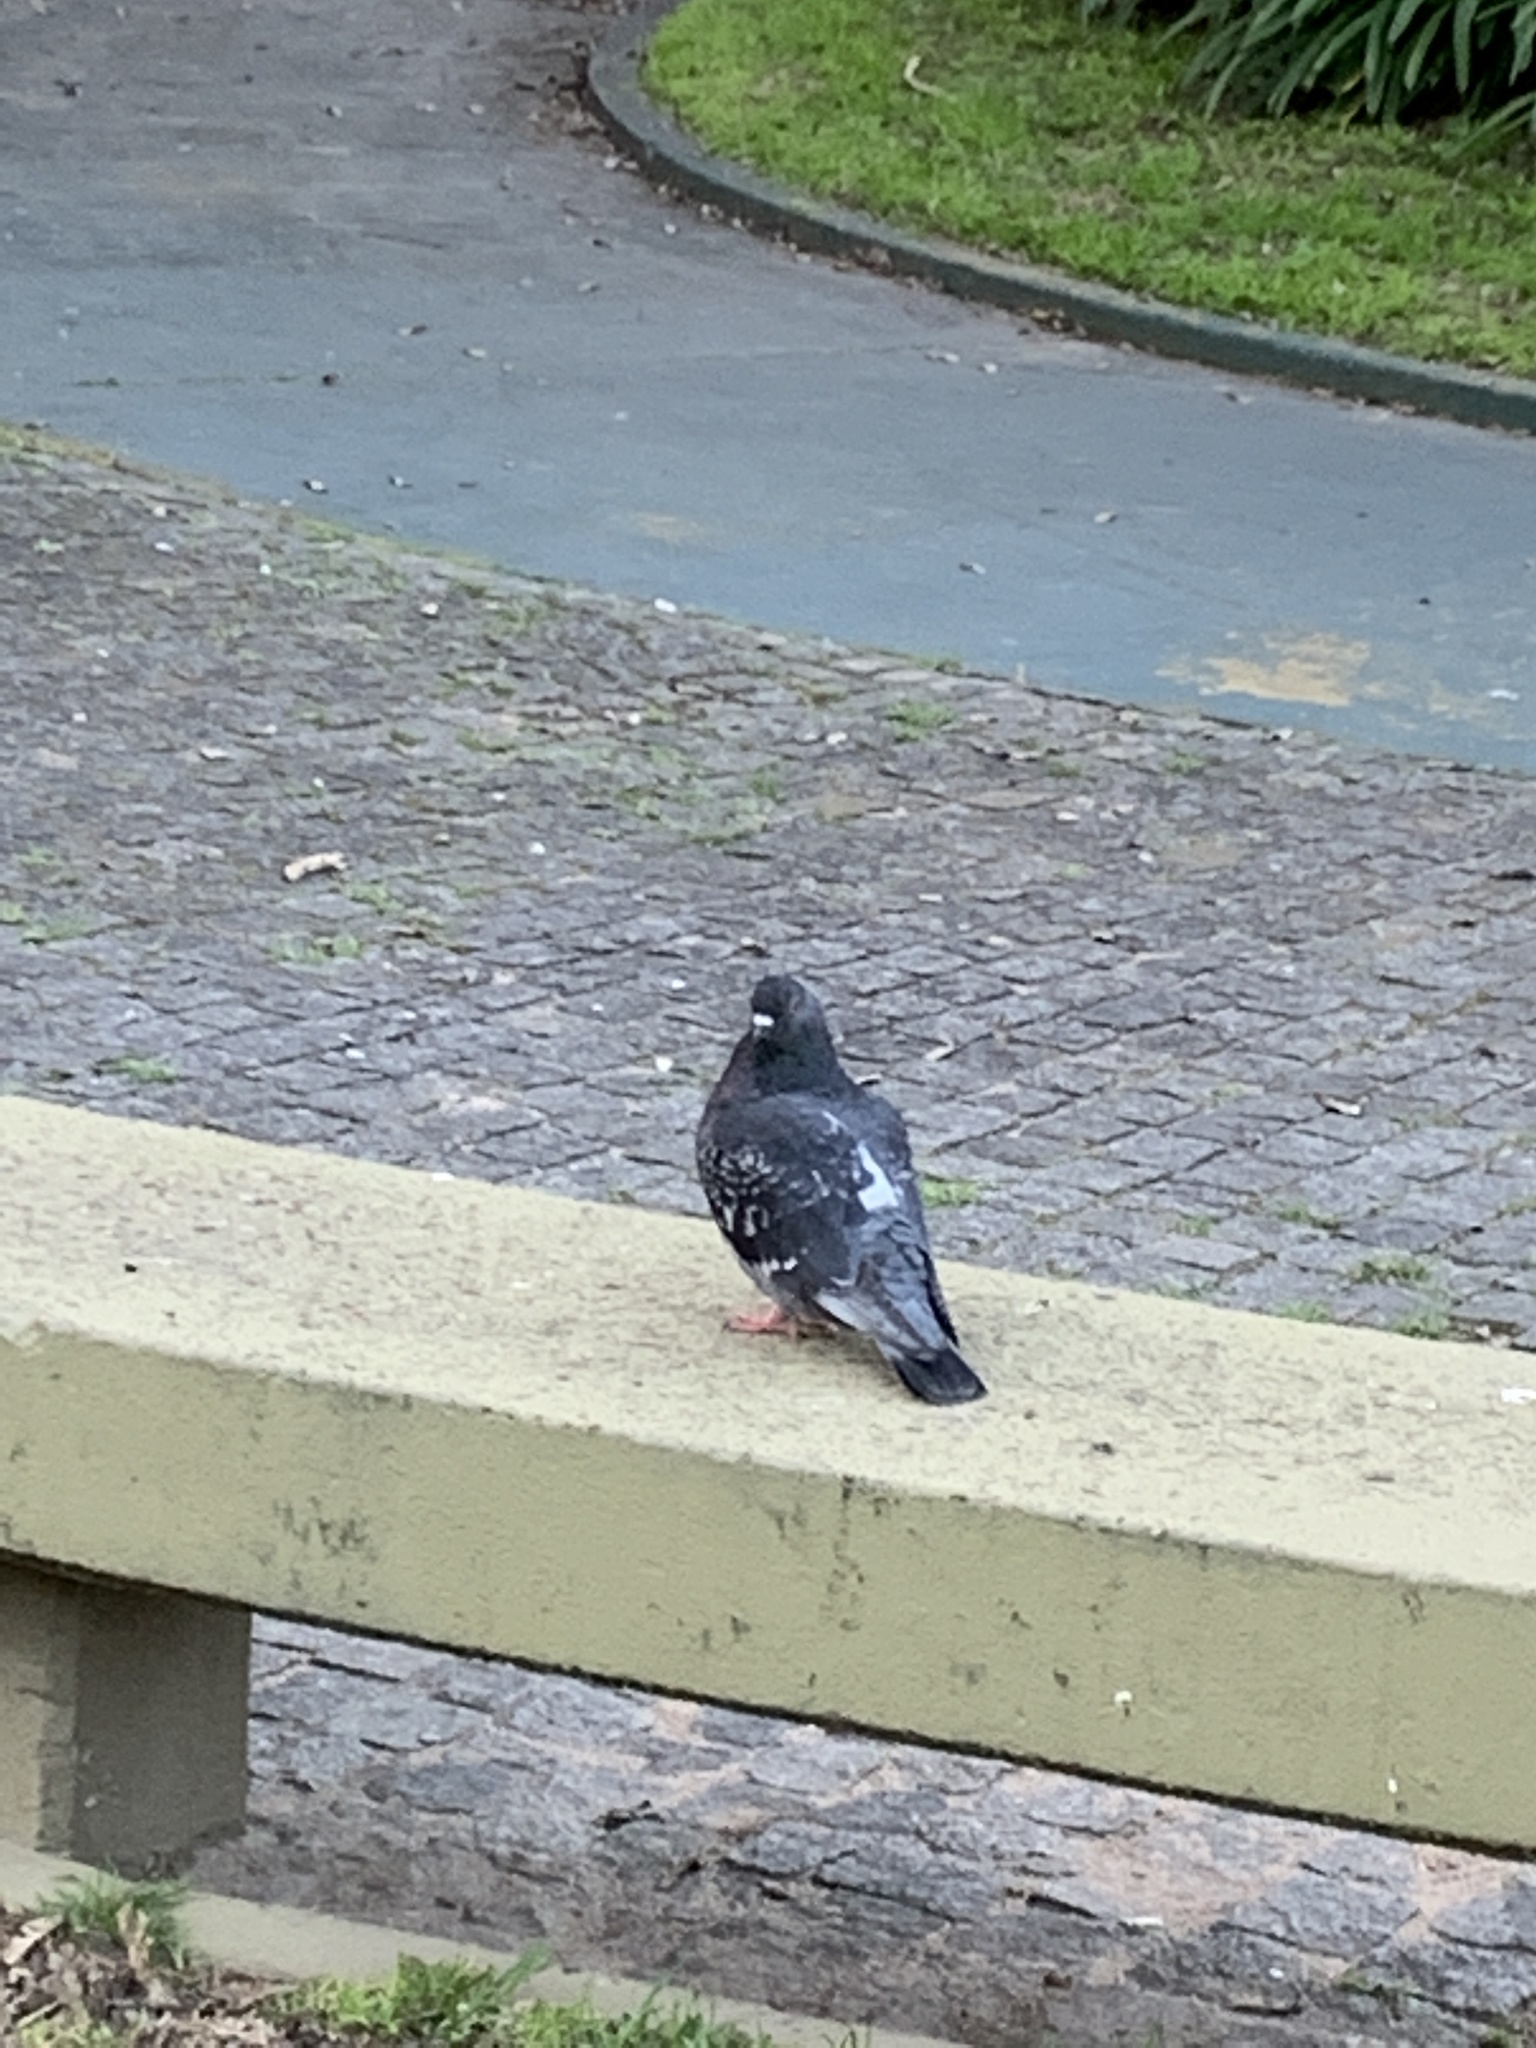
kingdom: Animalia
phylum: Chordata
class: Aves
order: Columbiformes
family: Columbidae
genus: Columba
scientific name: Columba livia
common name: Rock pigeon
